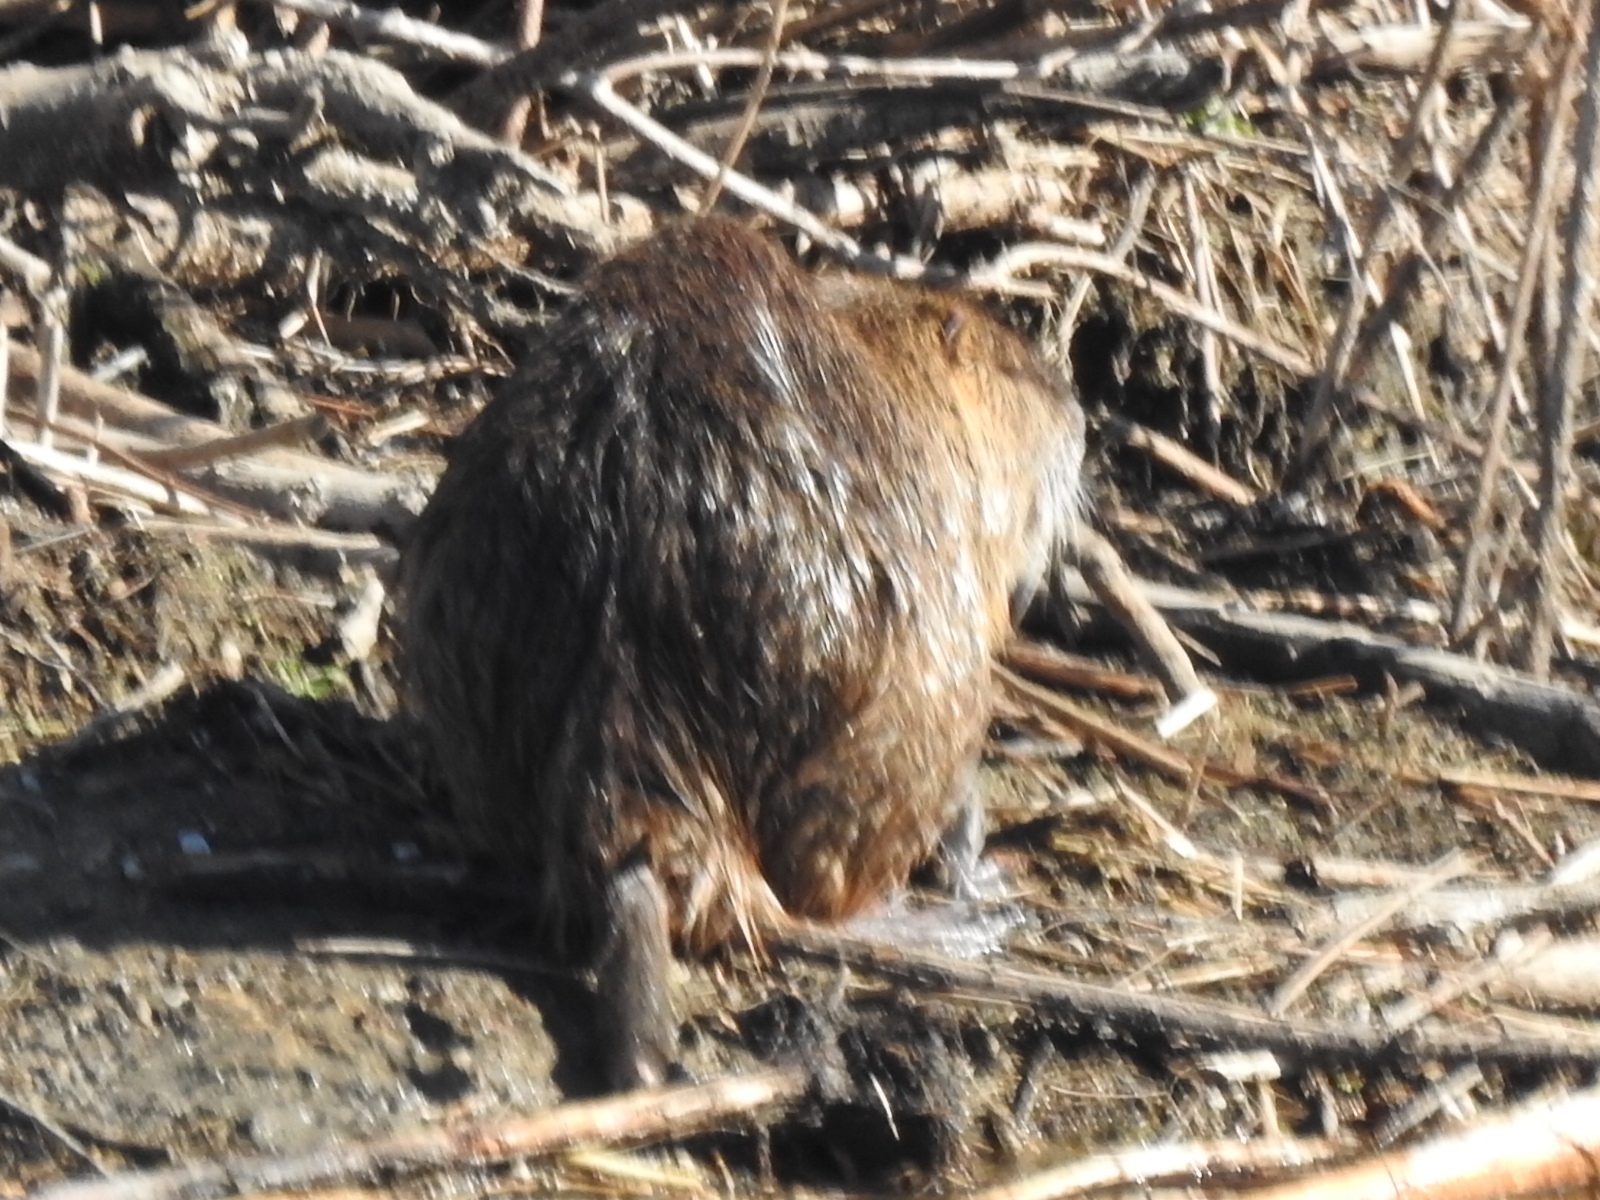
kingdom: Animalia
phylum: Chordata
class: Mammalia
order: Rodentia
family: Myocastoridae
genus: Myocastor
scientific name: Myocastor coypus
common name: Coypu
